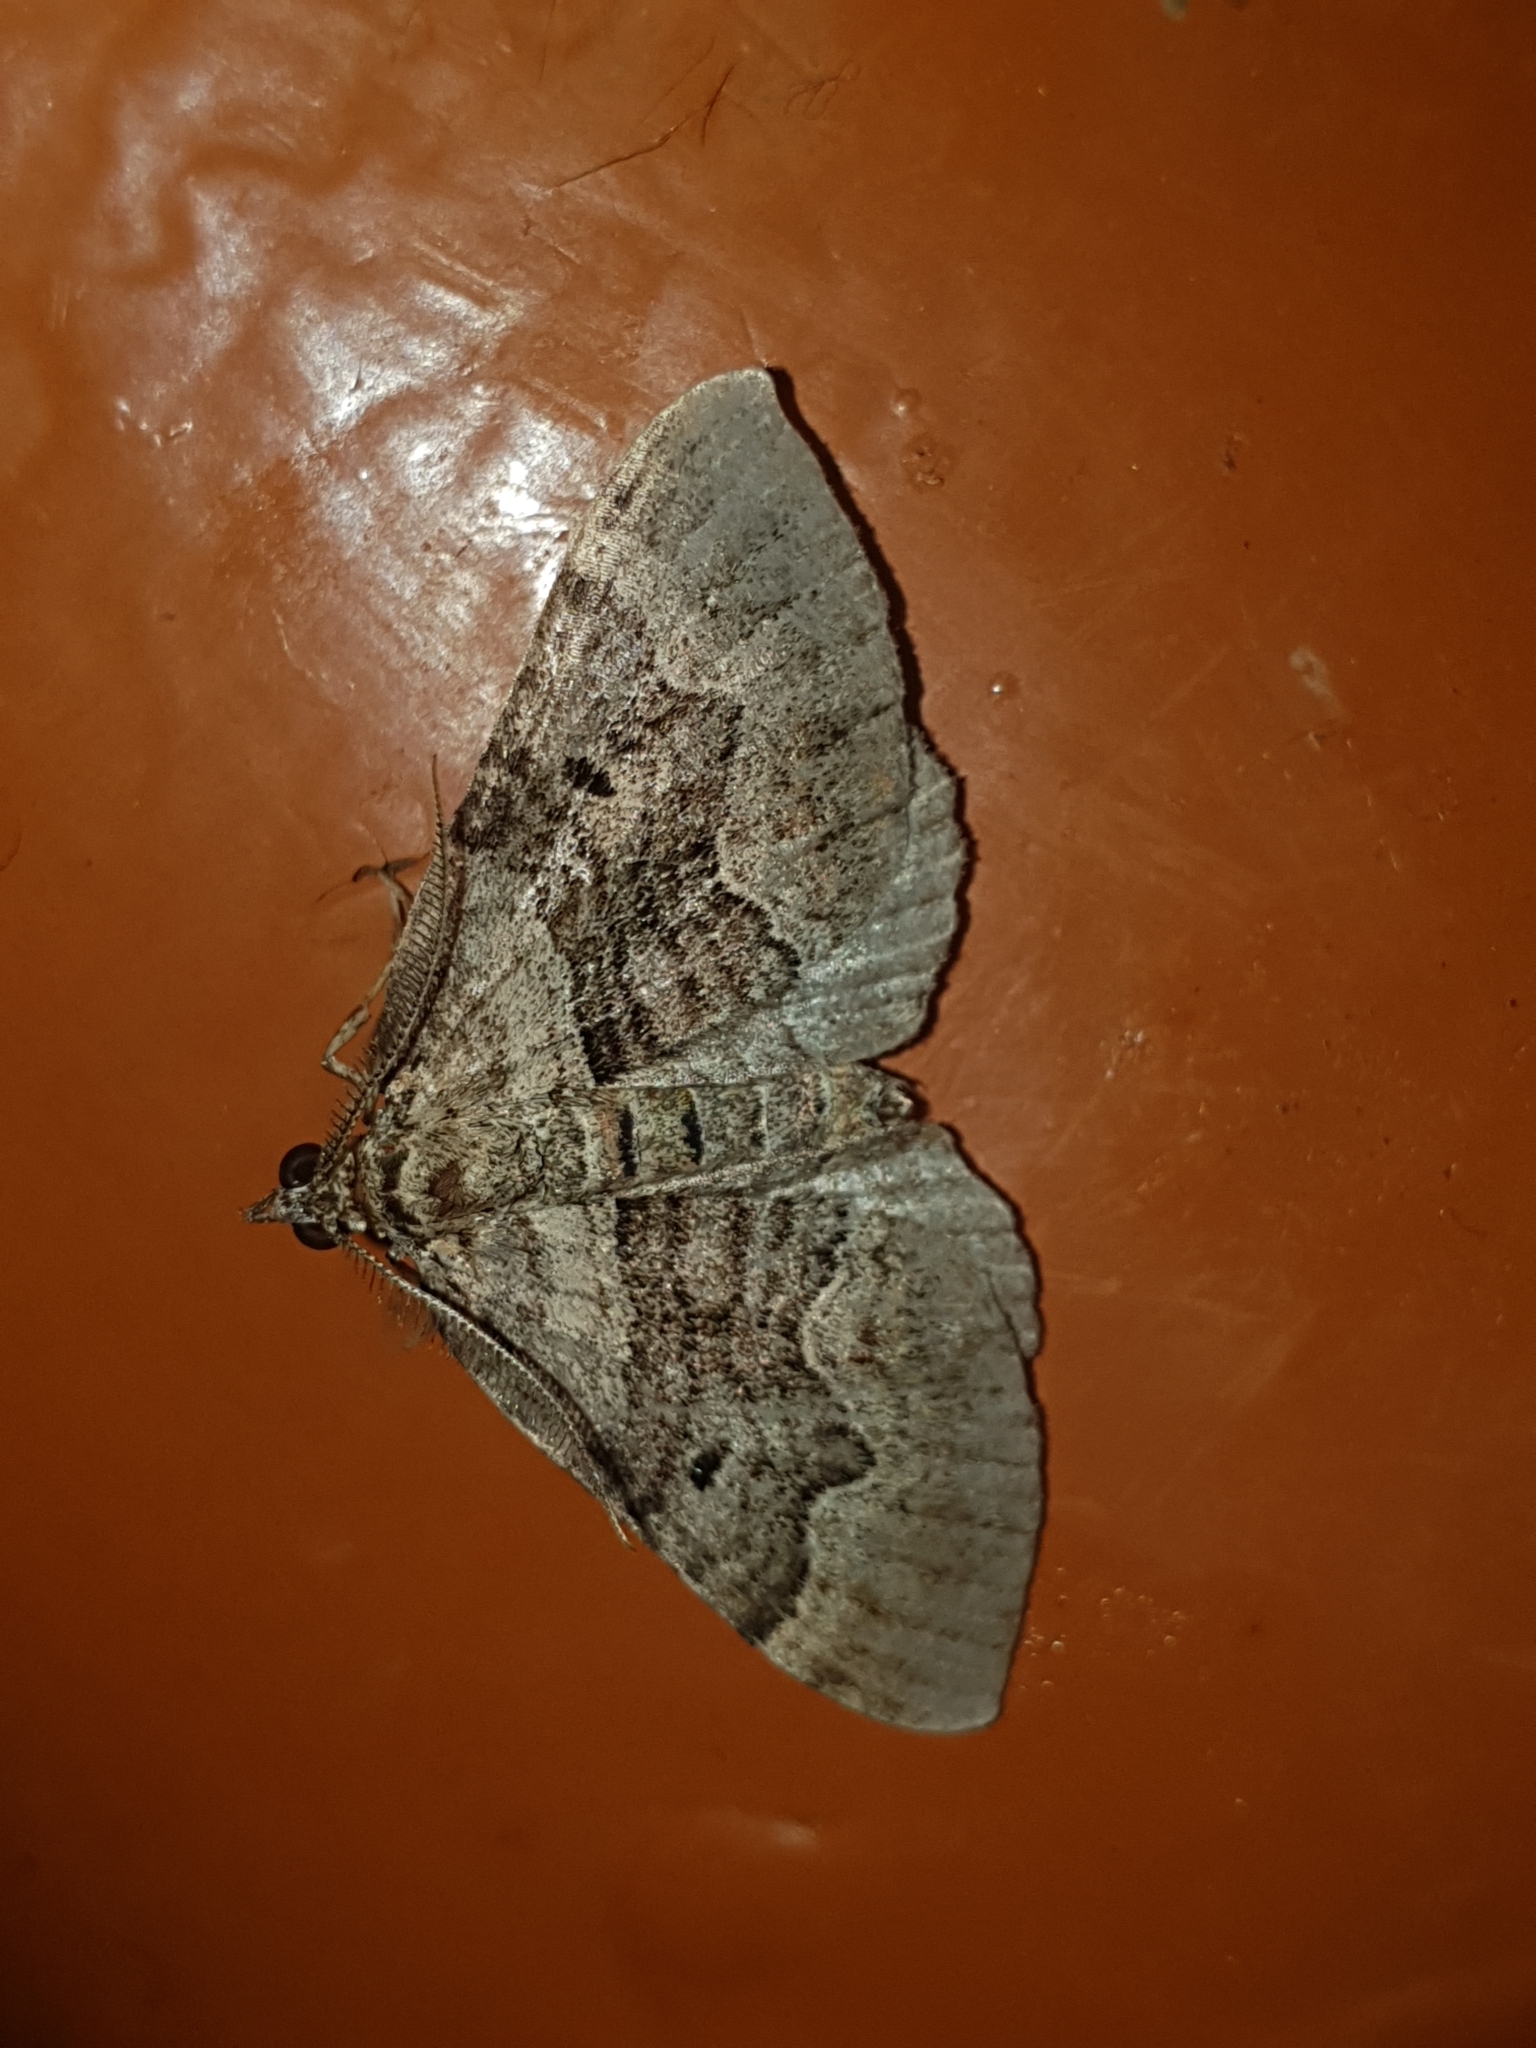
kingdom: Animalia
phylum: Arthropoda
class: Insecta
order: Lepidoptera
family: Geometridae
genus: Xanthorhoe
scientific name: Xanthorhoe quadrifasiata
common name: Large twin-spot carpet
